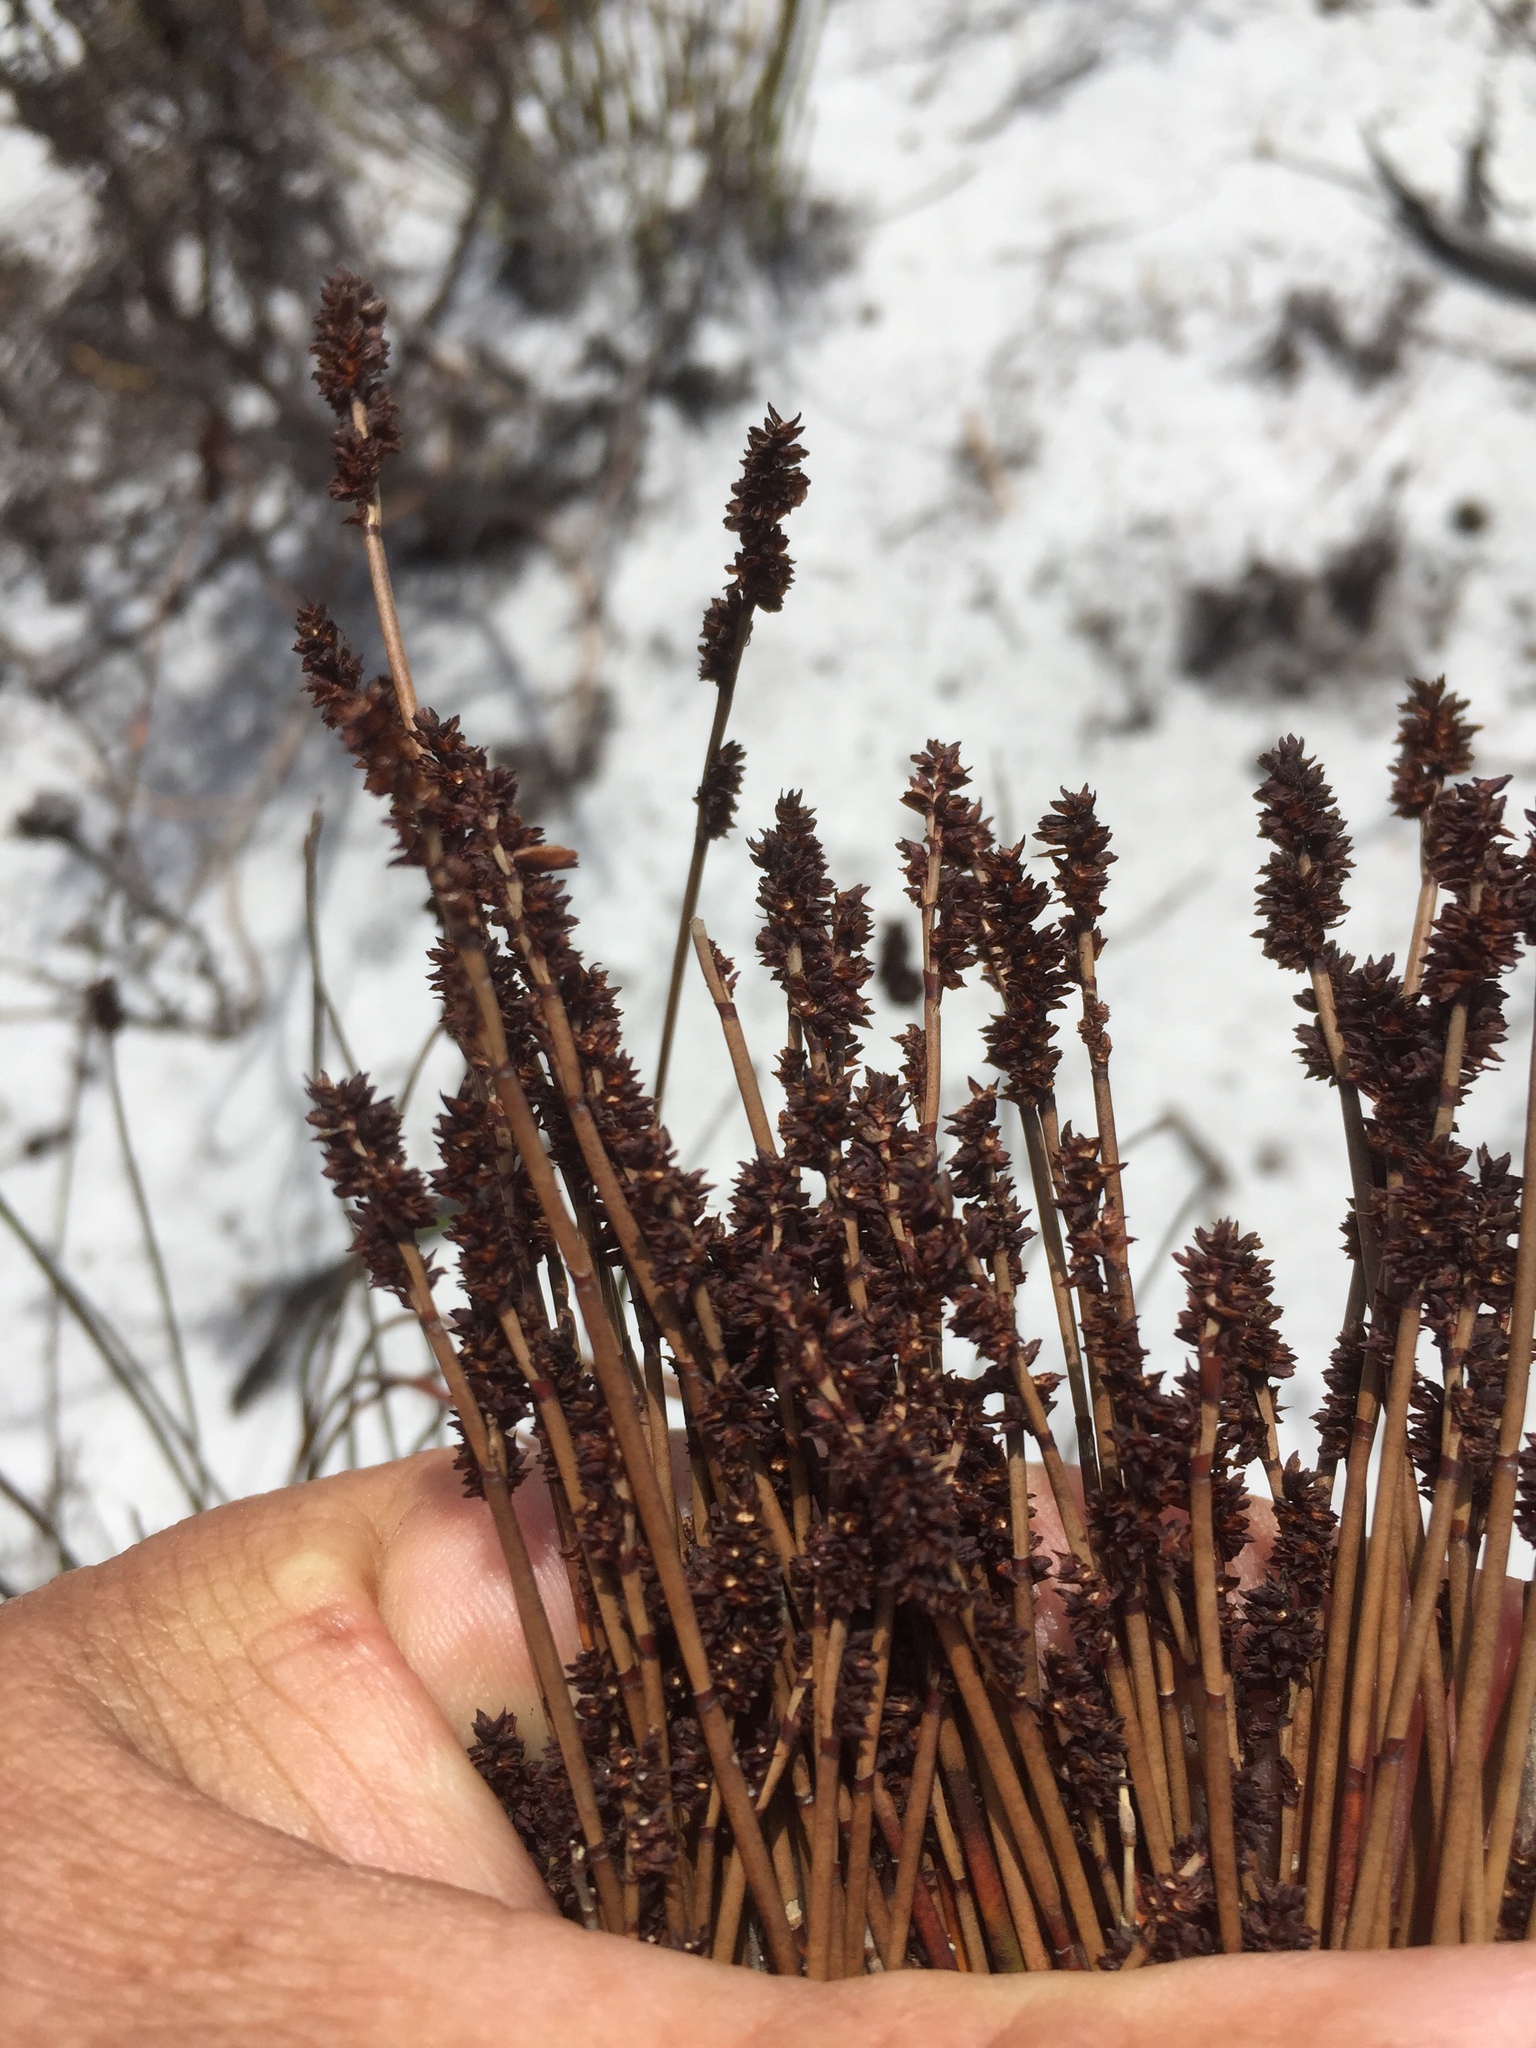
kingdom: Plantae
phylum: Tracheophyta
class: Liliopsida
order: Poales
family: Restionaceae
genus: Elegia
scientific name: Elegia nuda
